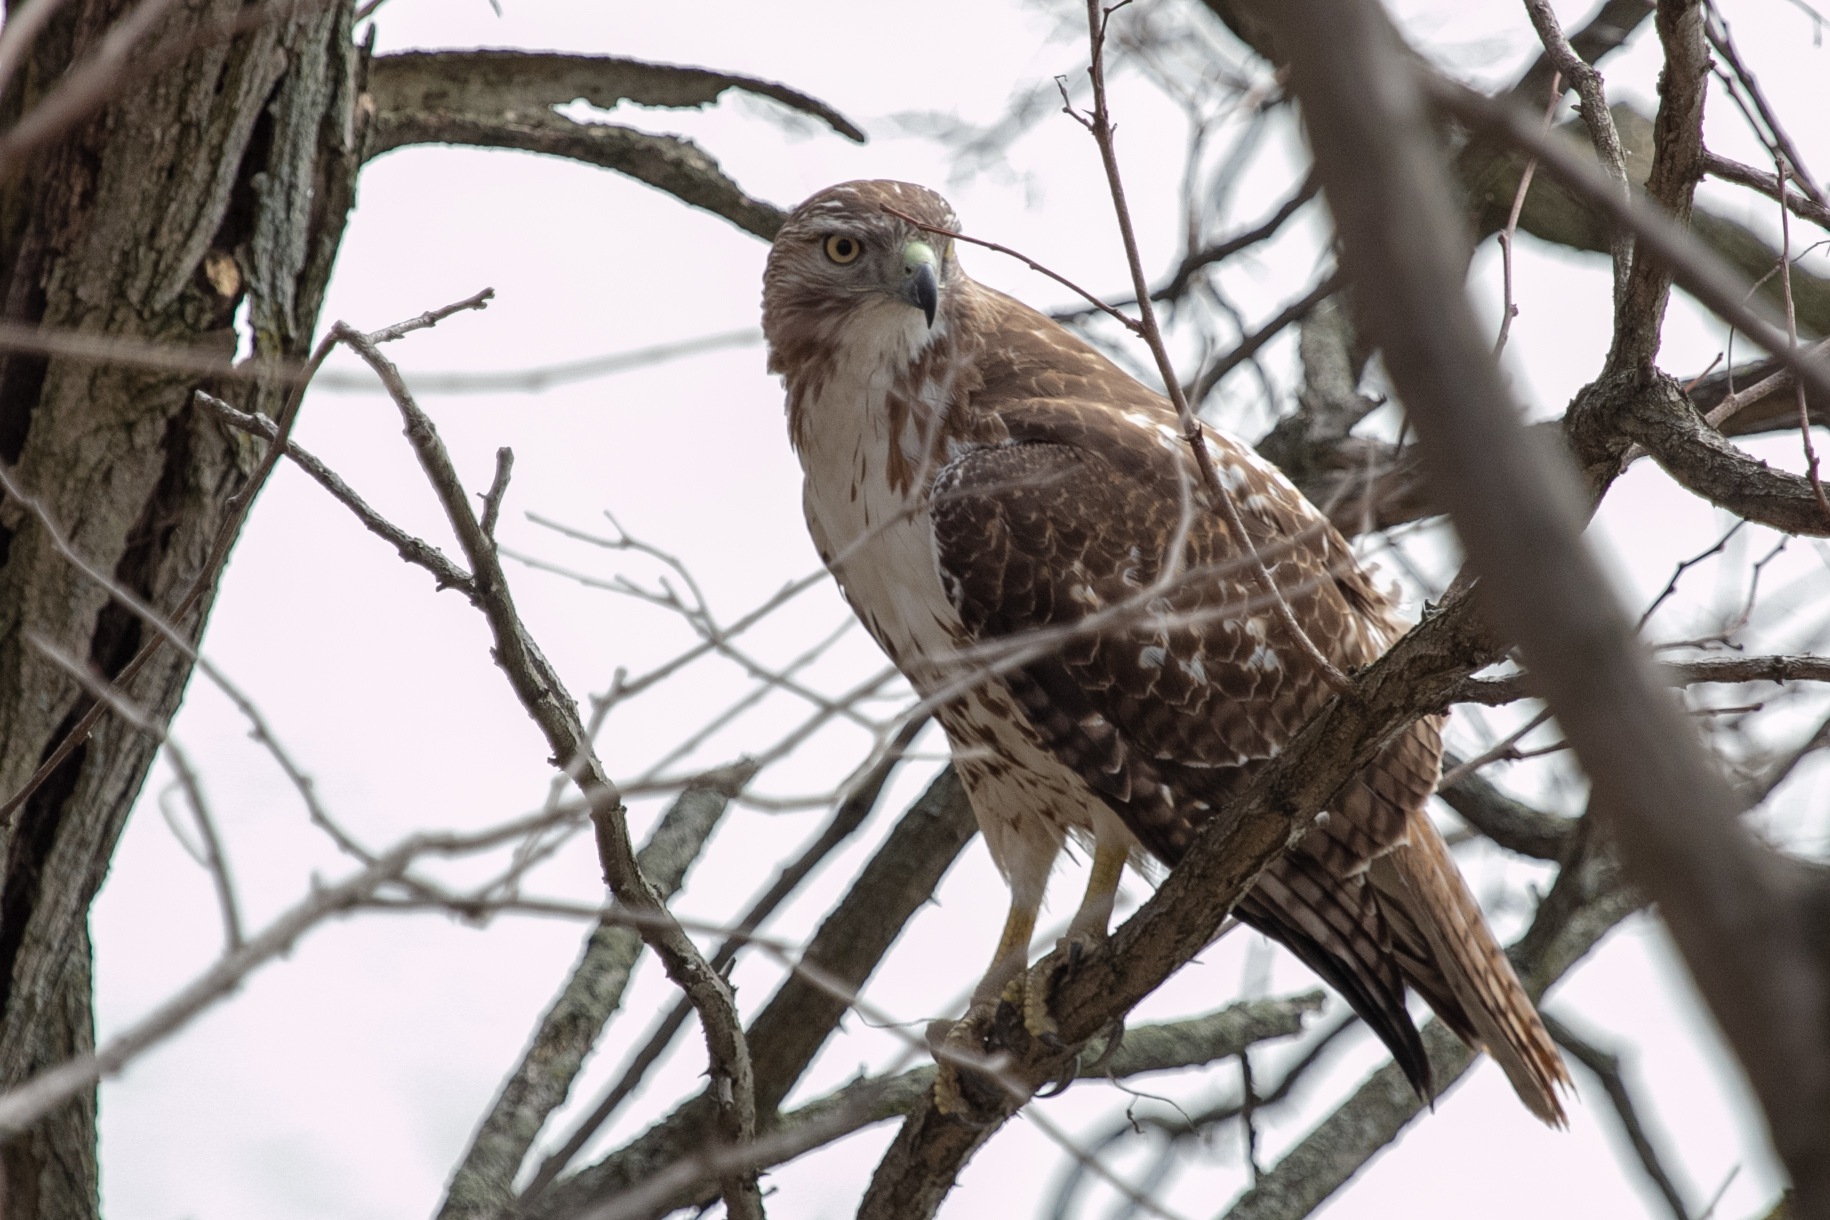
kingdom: Animalia
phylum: Chordata
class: Aves
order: Accipitriformes
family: Accipitridae
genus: Buteo
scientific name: Buteo jamaicensis
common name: Red-tailed hawk
